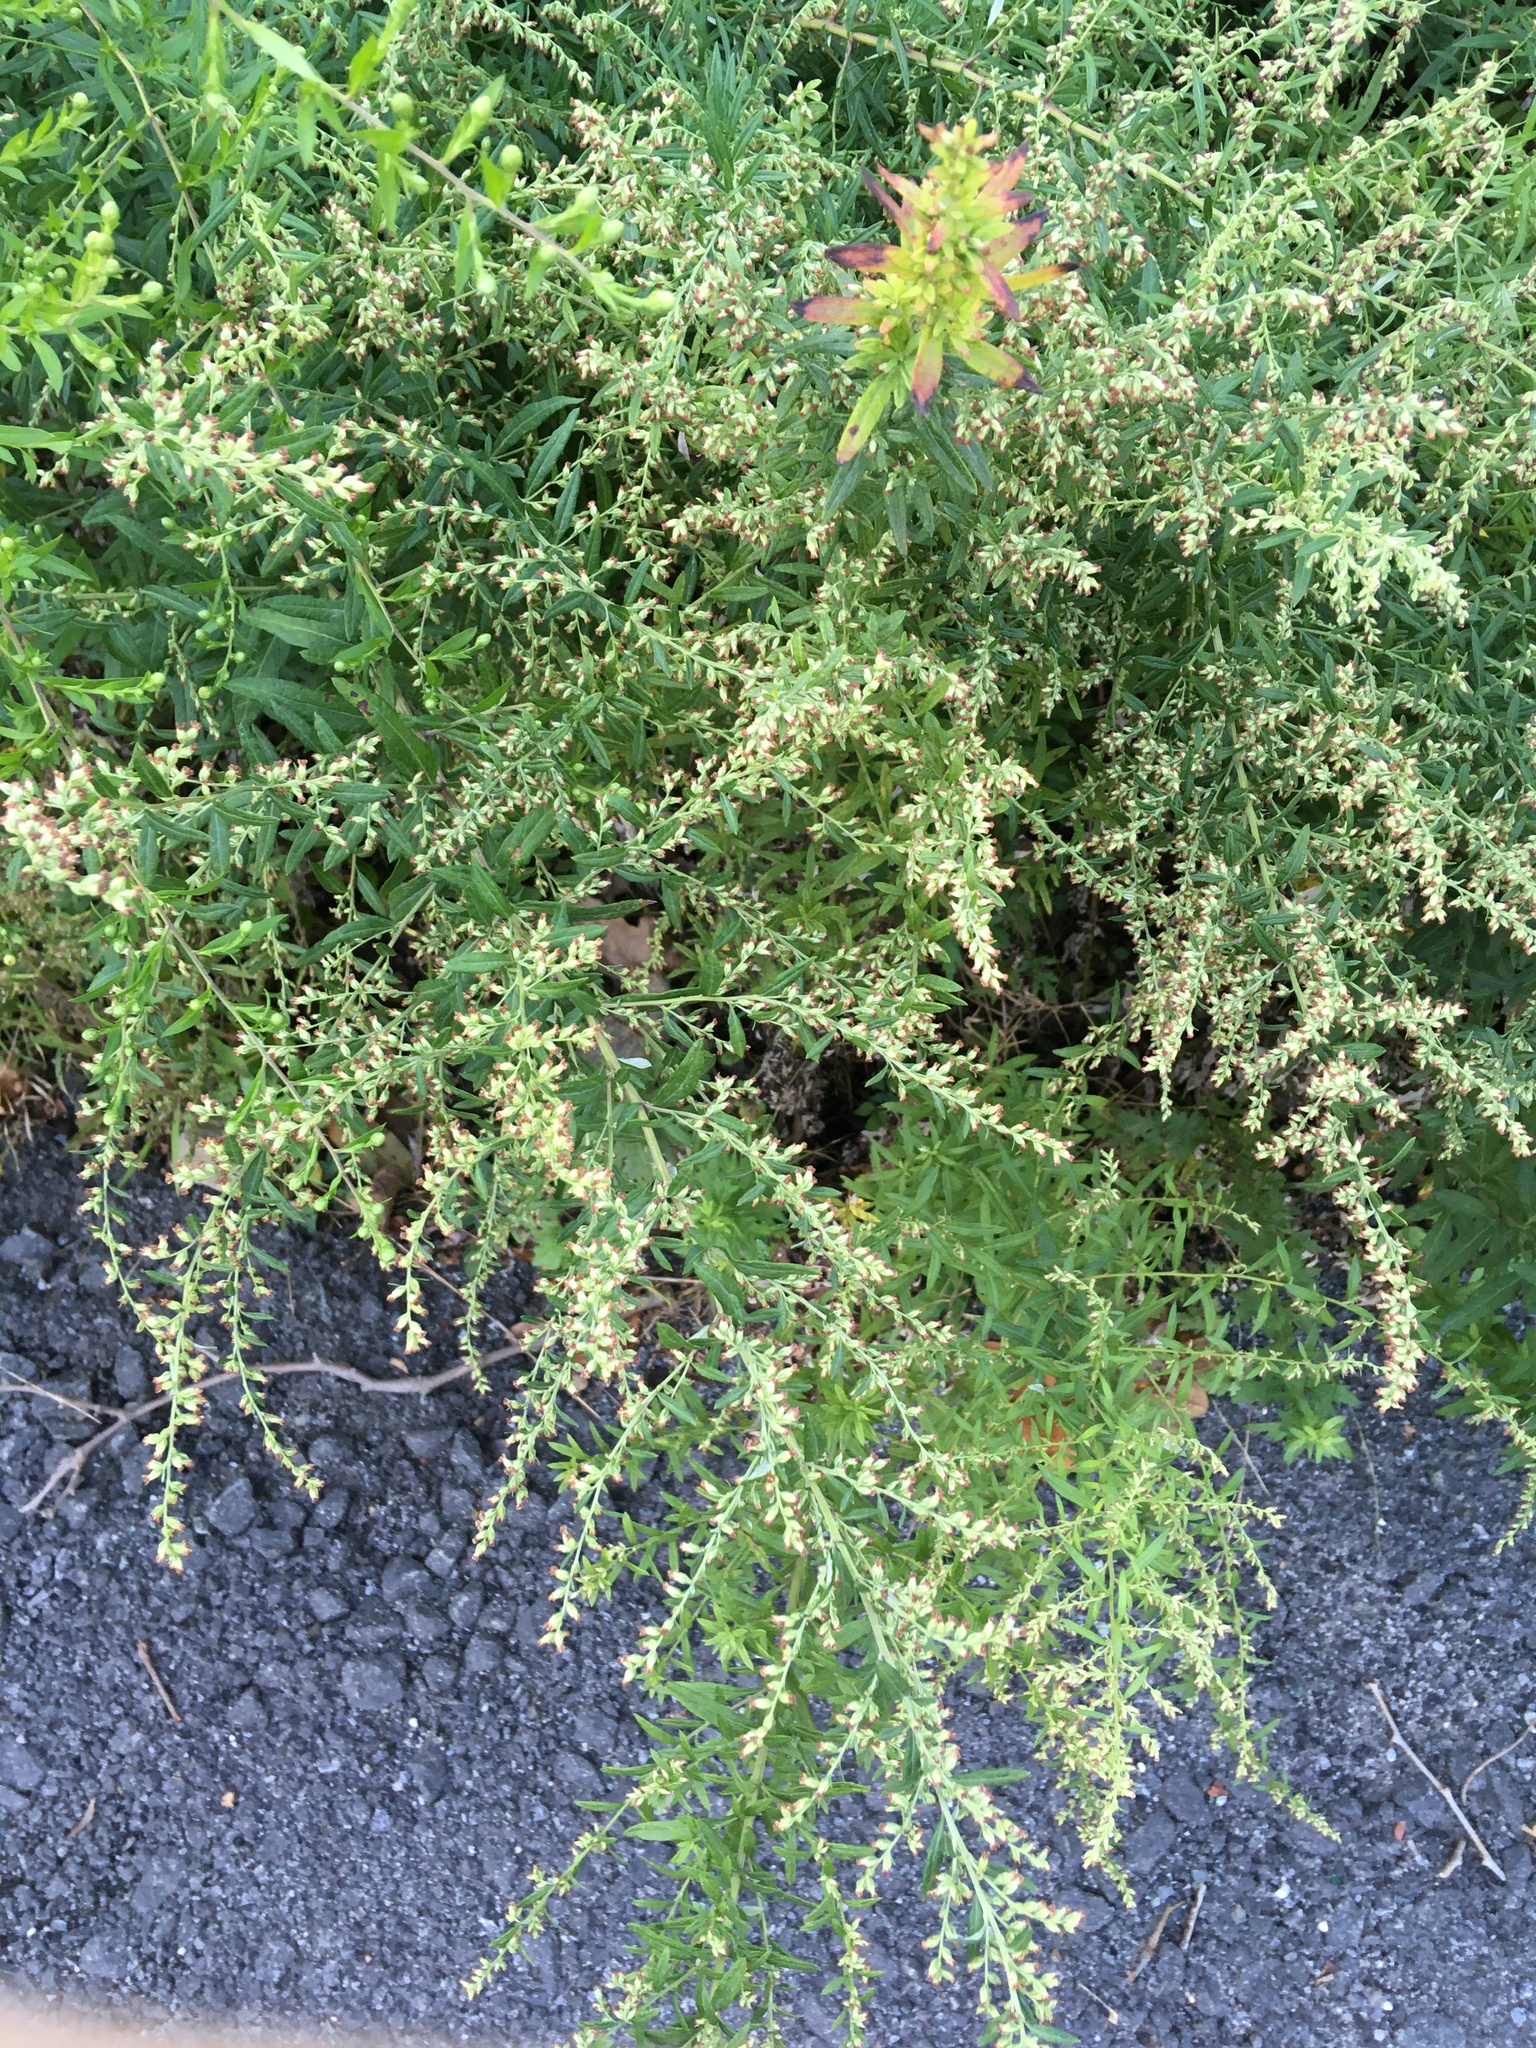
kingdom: Plantae
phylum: Tracheophyta
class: Magnoliopsida
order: Asterales
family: Asteraceae
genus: Artemisia
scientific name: Artemisia vulgaris
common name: Mugwort
